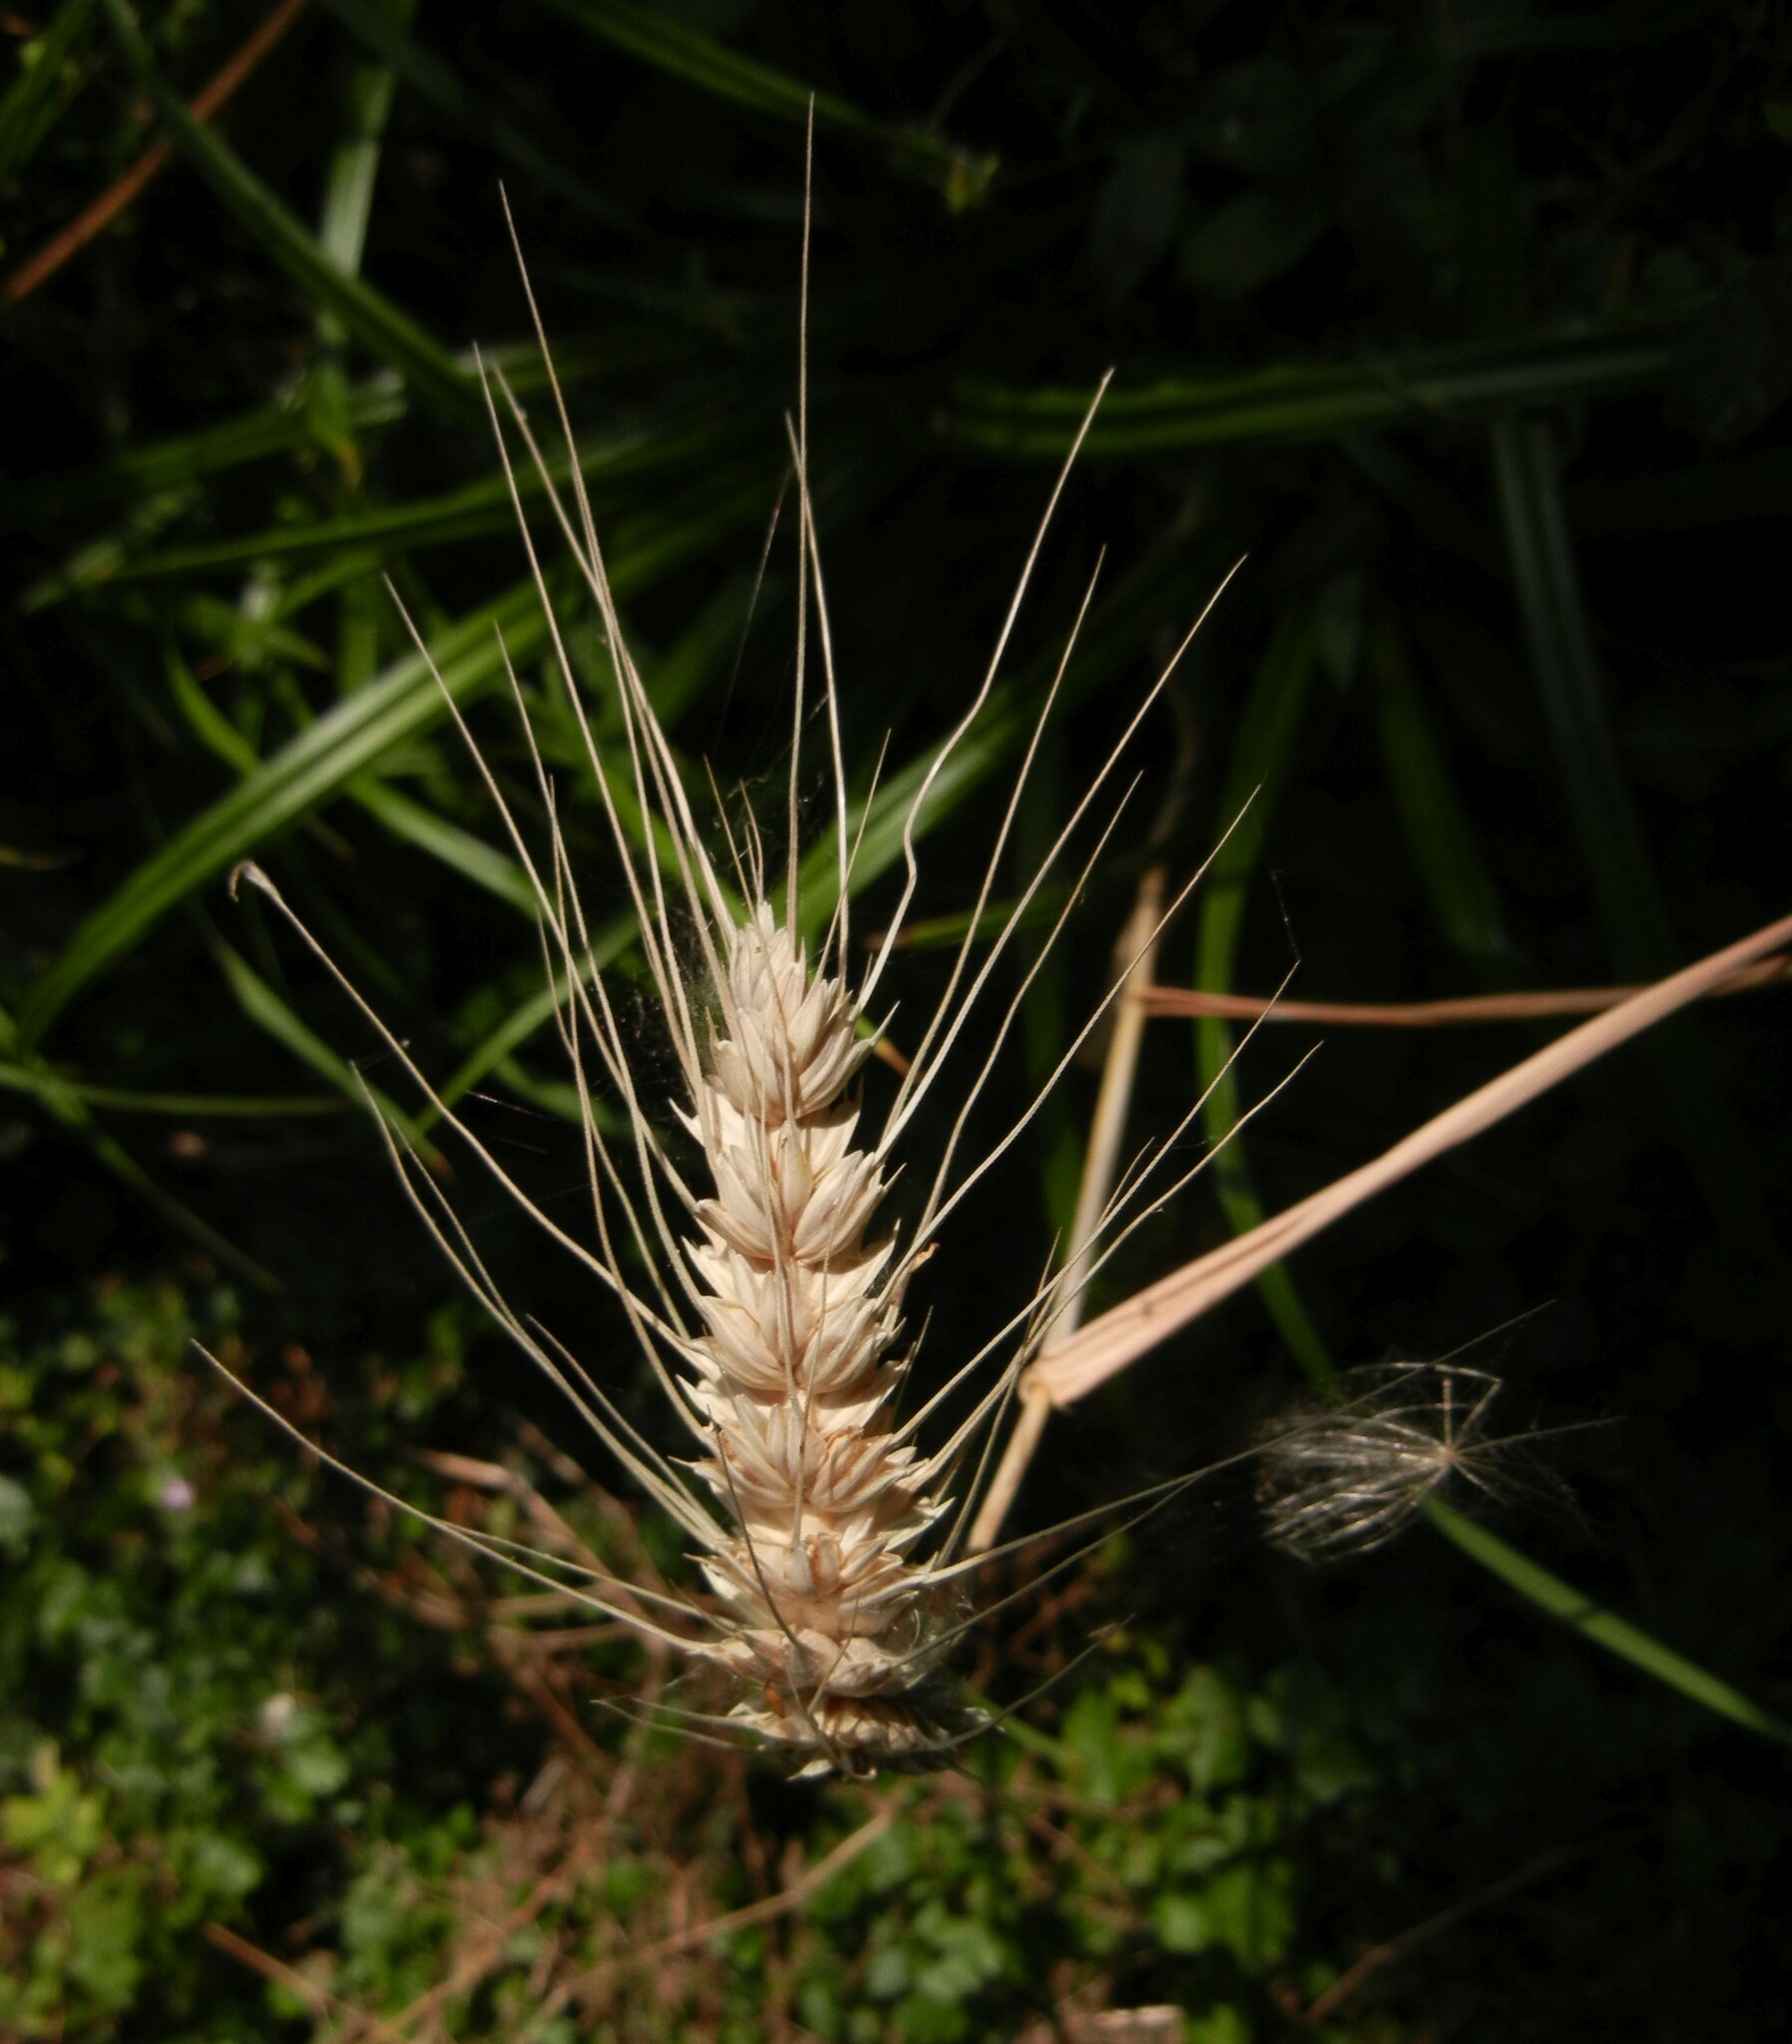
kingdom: Plantae
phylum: Tracheophyta
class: Liliopsida
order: Poales
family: Poaceae
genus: Triticum
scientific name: Triticum aestivum
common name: Common wheat
